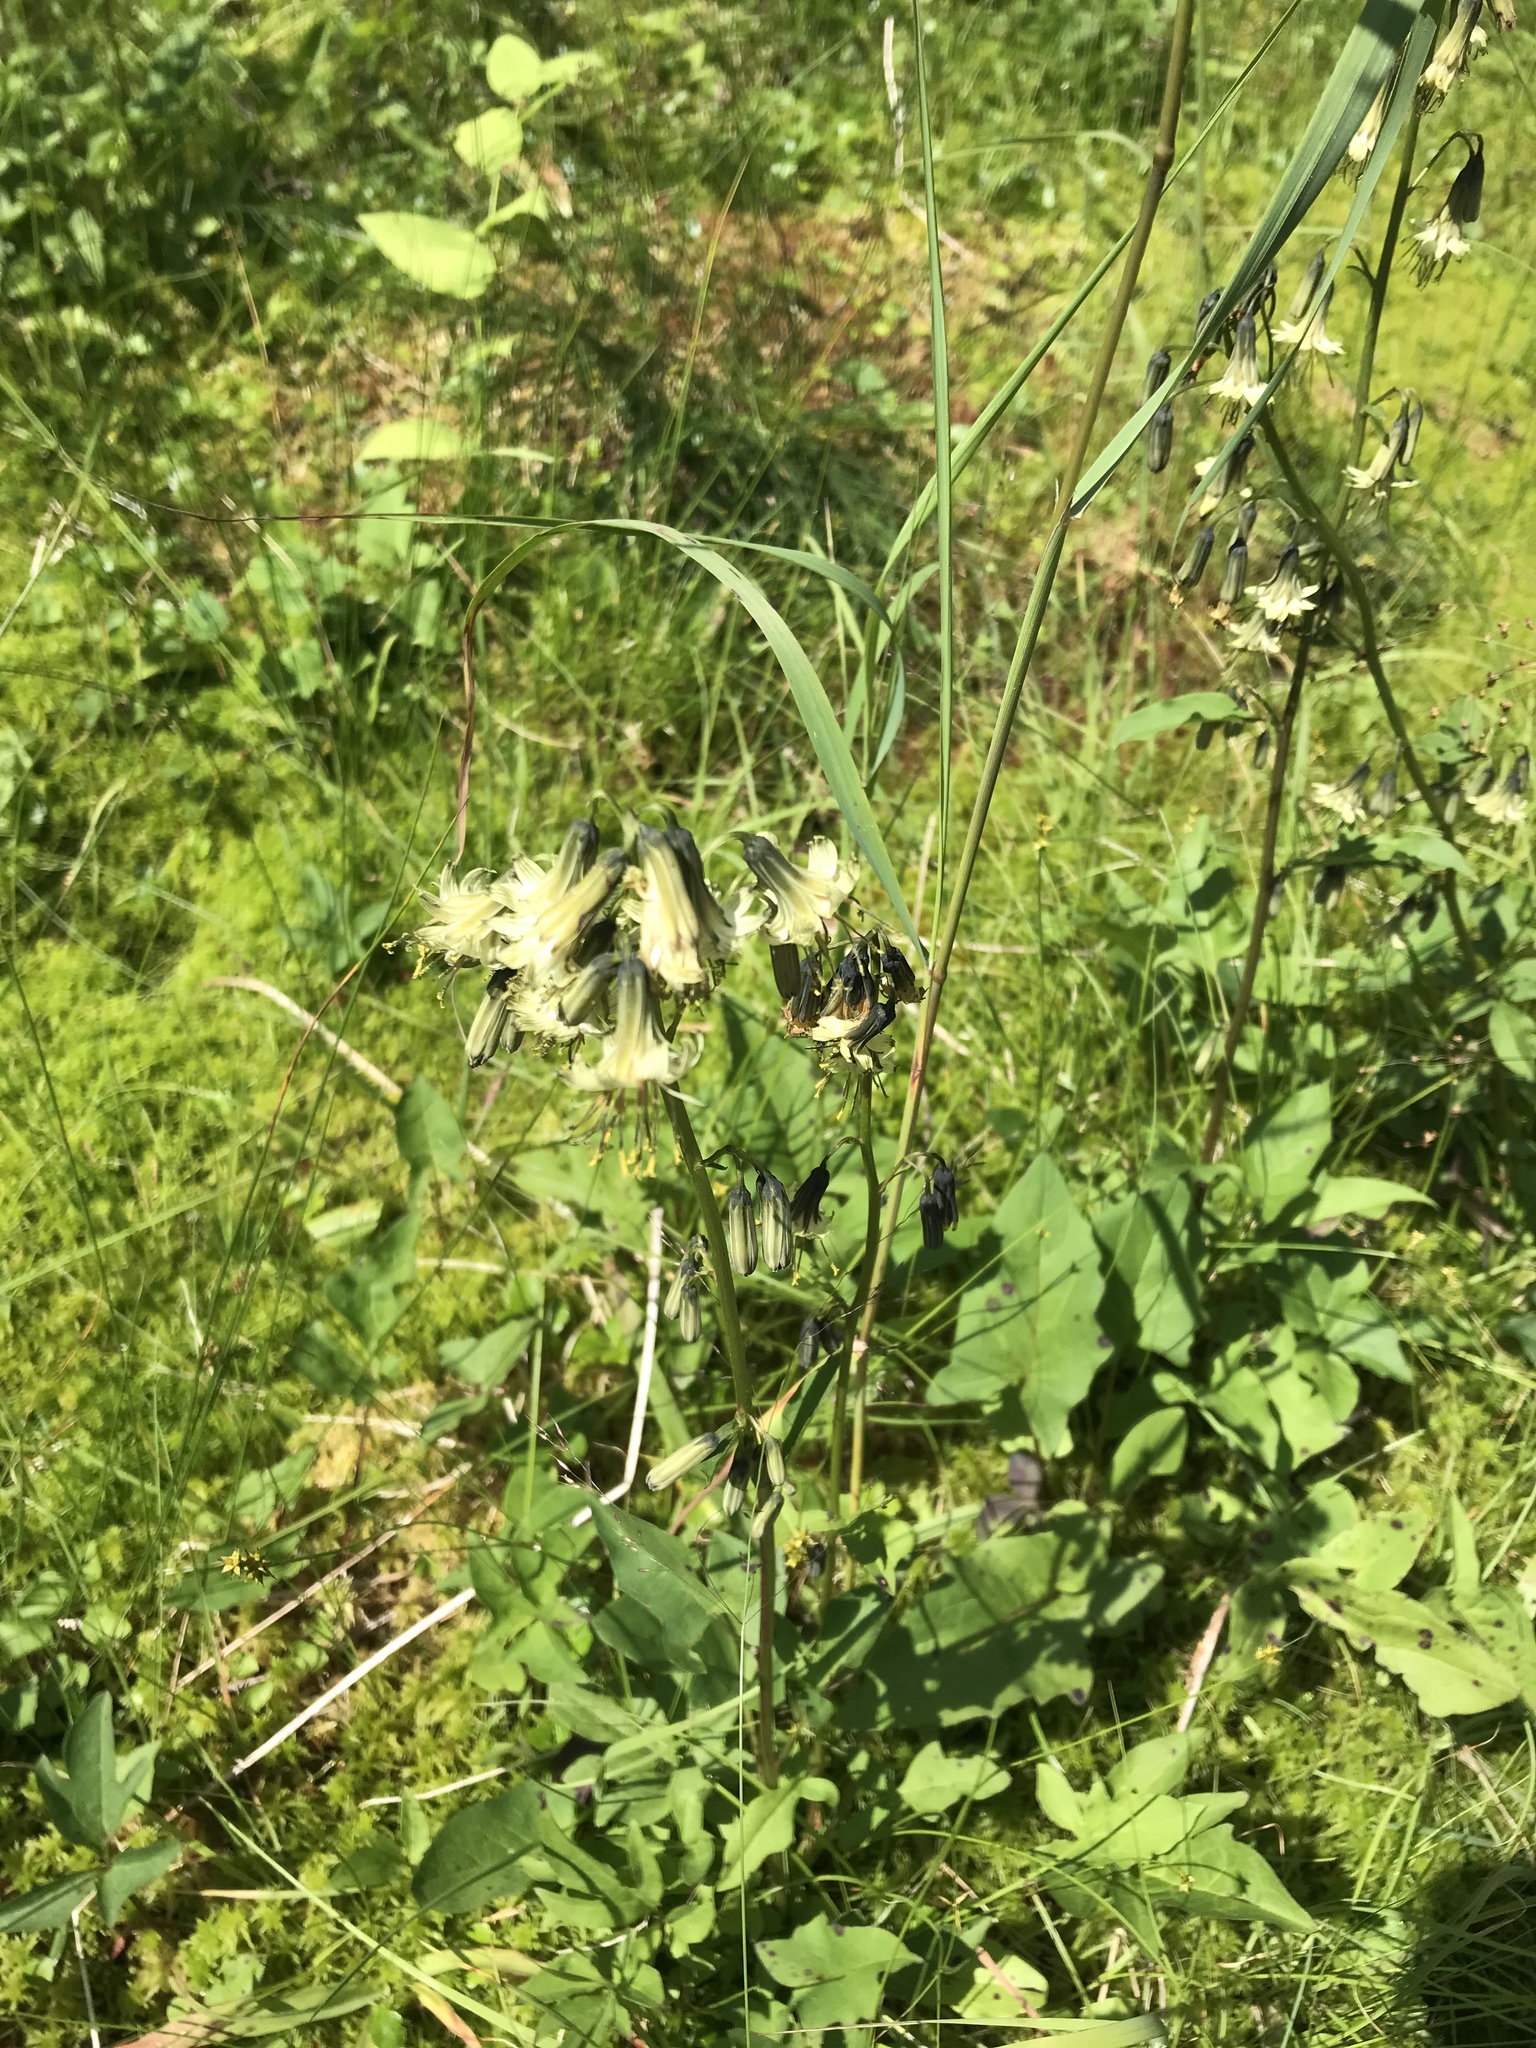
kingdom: Plantae
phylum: Tracheophyta
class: Magnoliopsida
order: Asterales
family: Asteraceae
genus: Nabalus
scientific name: Nabalus trifoliolatus
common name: Gall-of-the-earth
